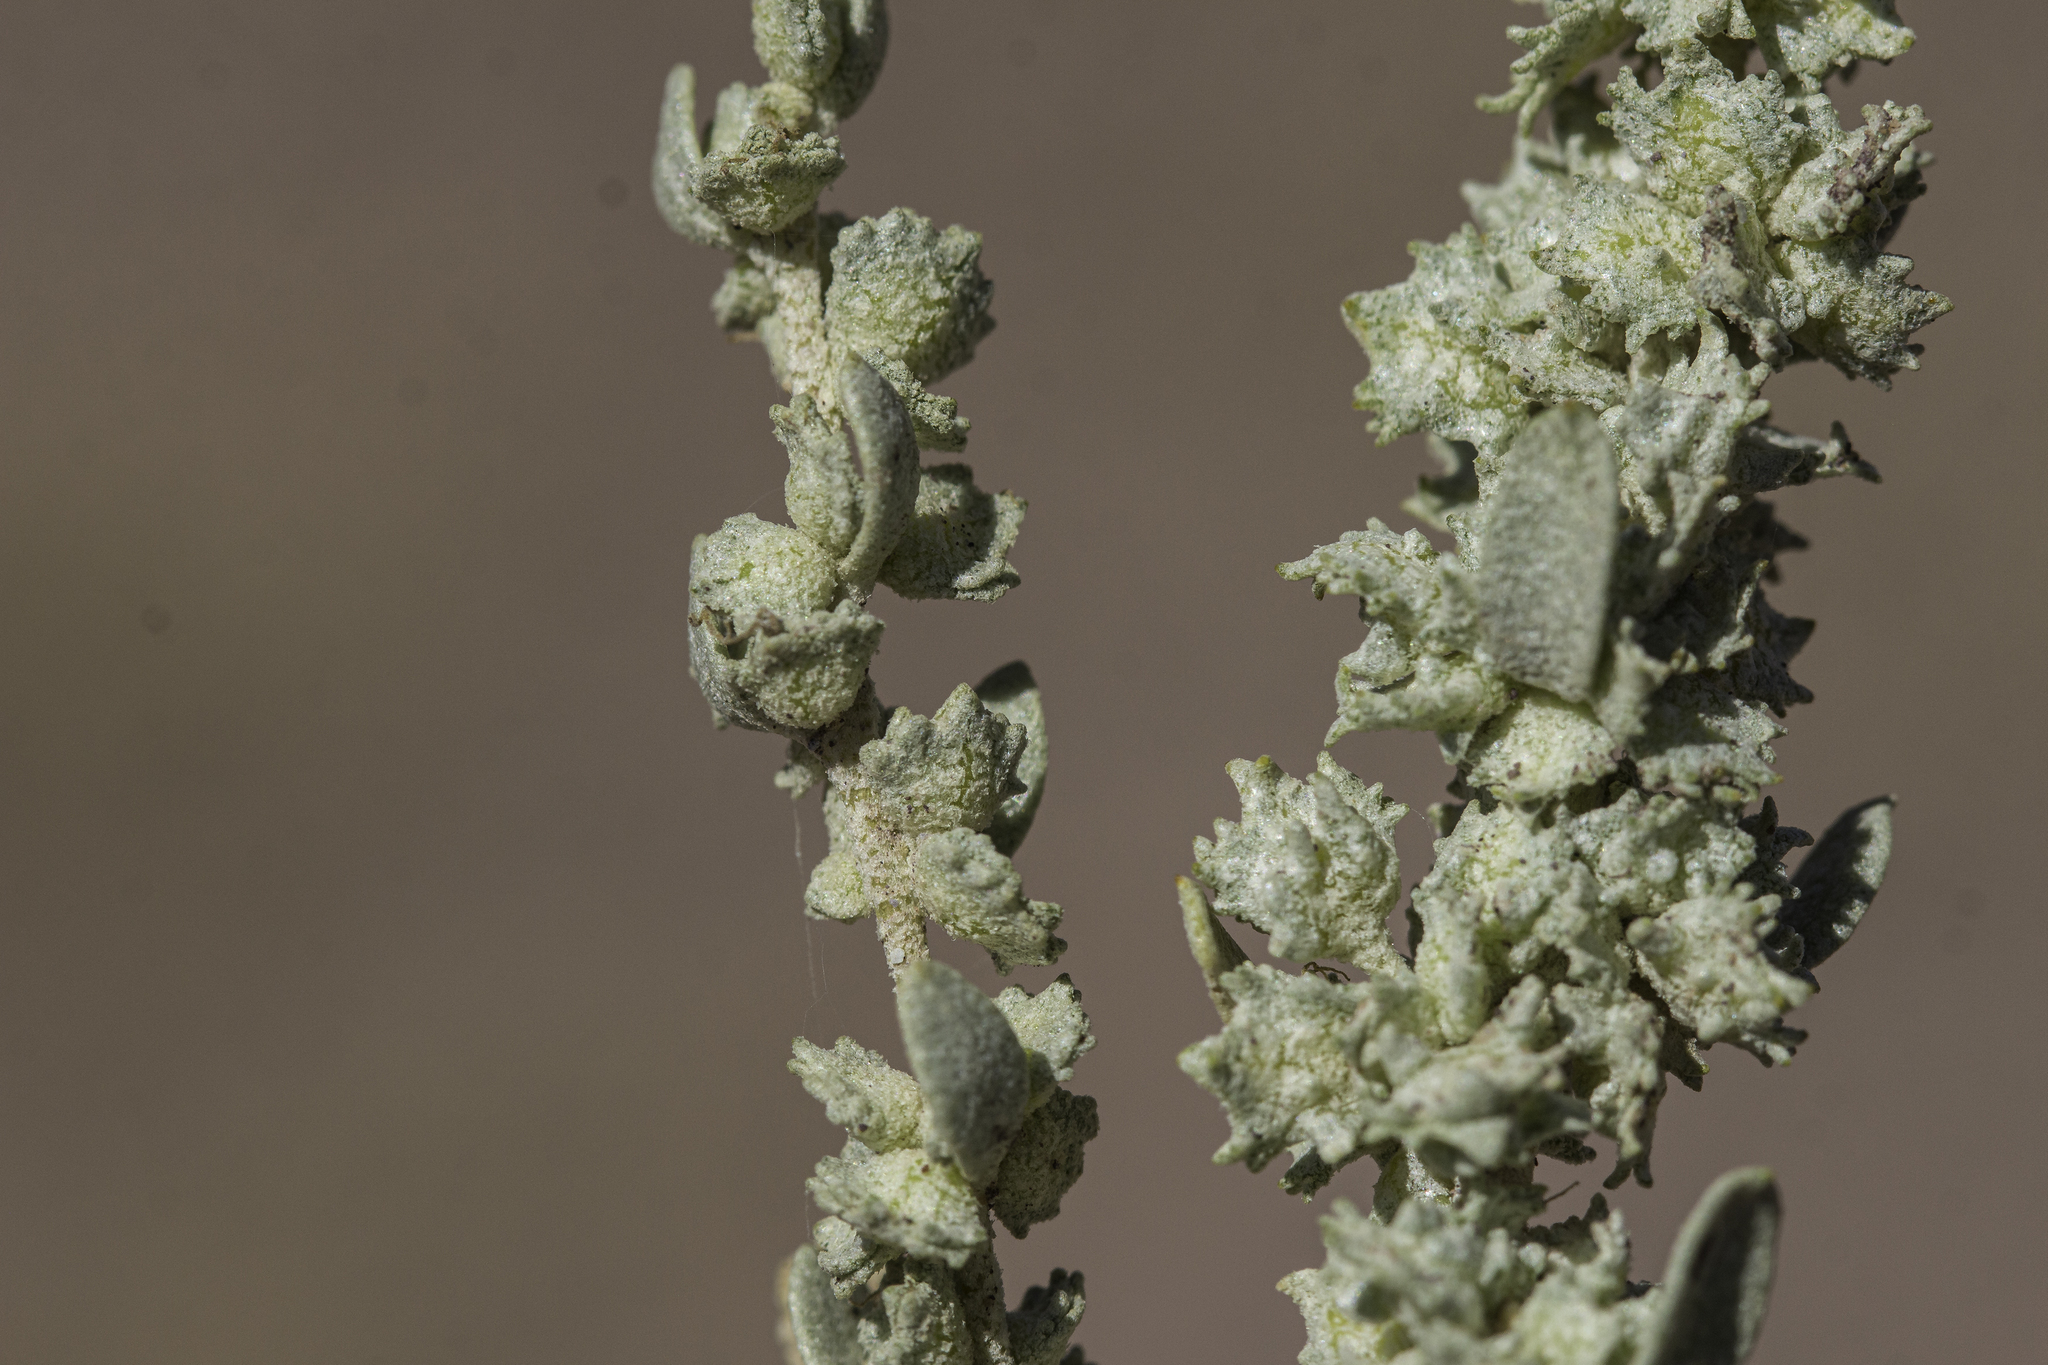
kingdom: Plantae
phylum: Tracheophyta
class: Magnoliopsida
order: Caryophyllales
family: Amaranthaceae
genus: Atriplex
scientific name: Atriplex obovata
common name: New mexico saltbush
